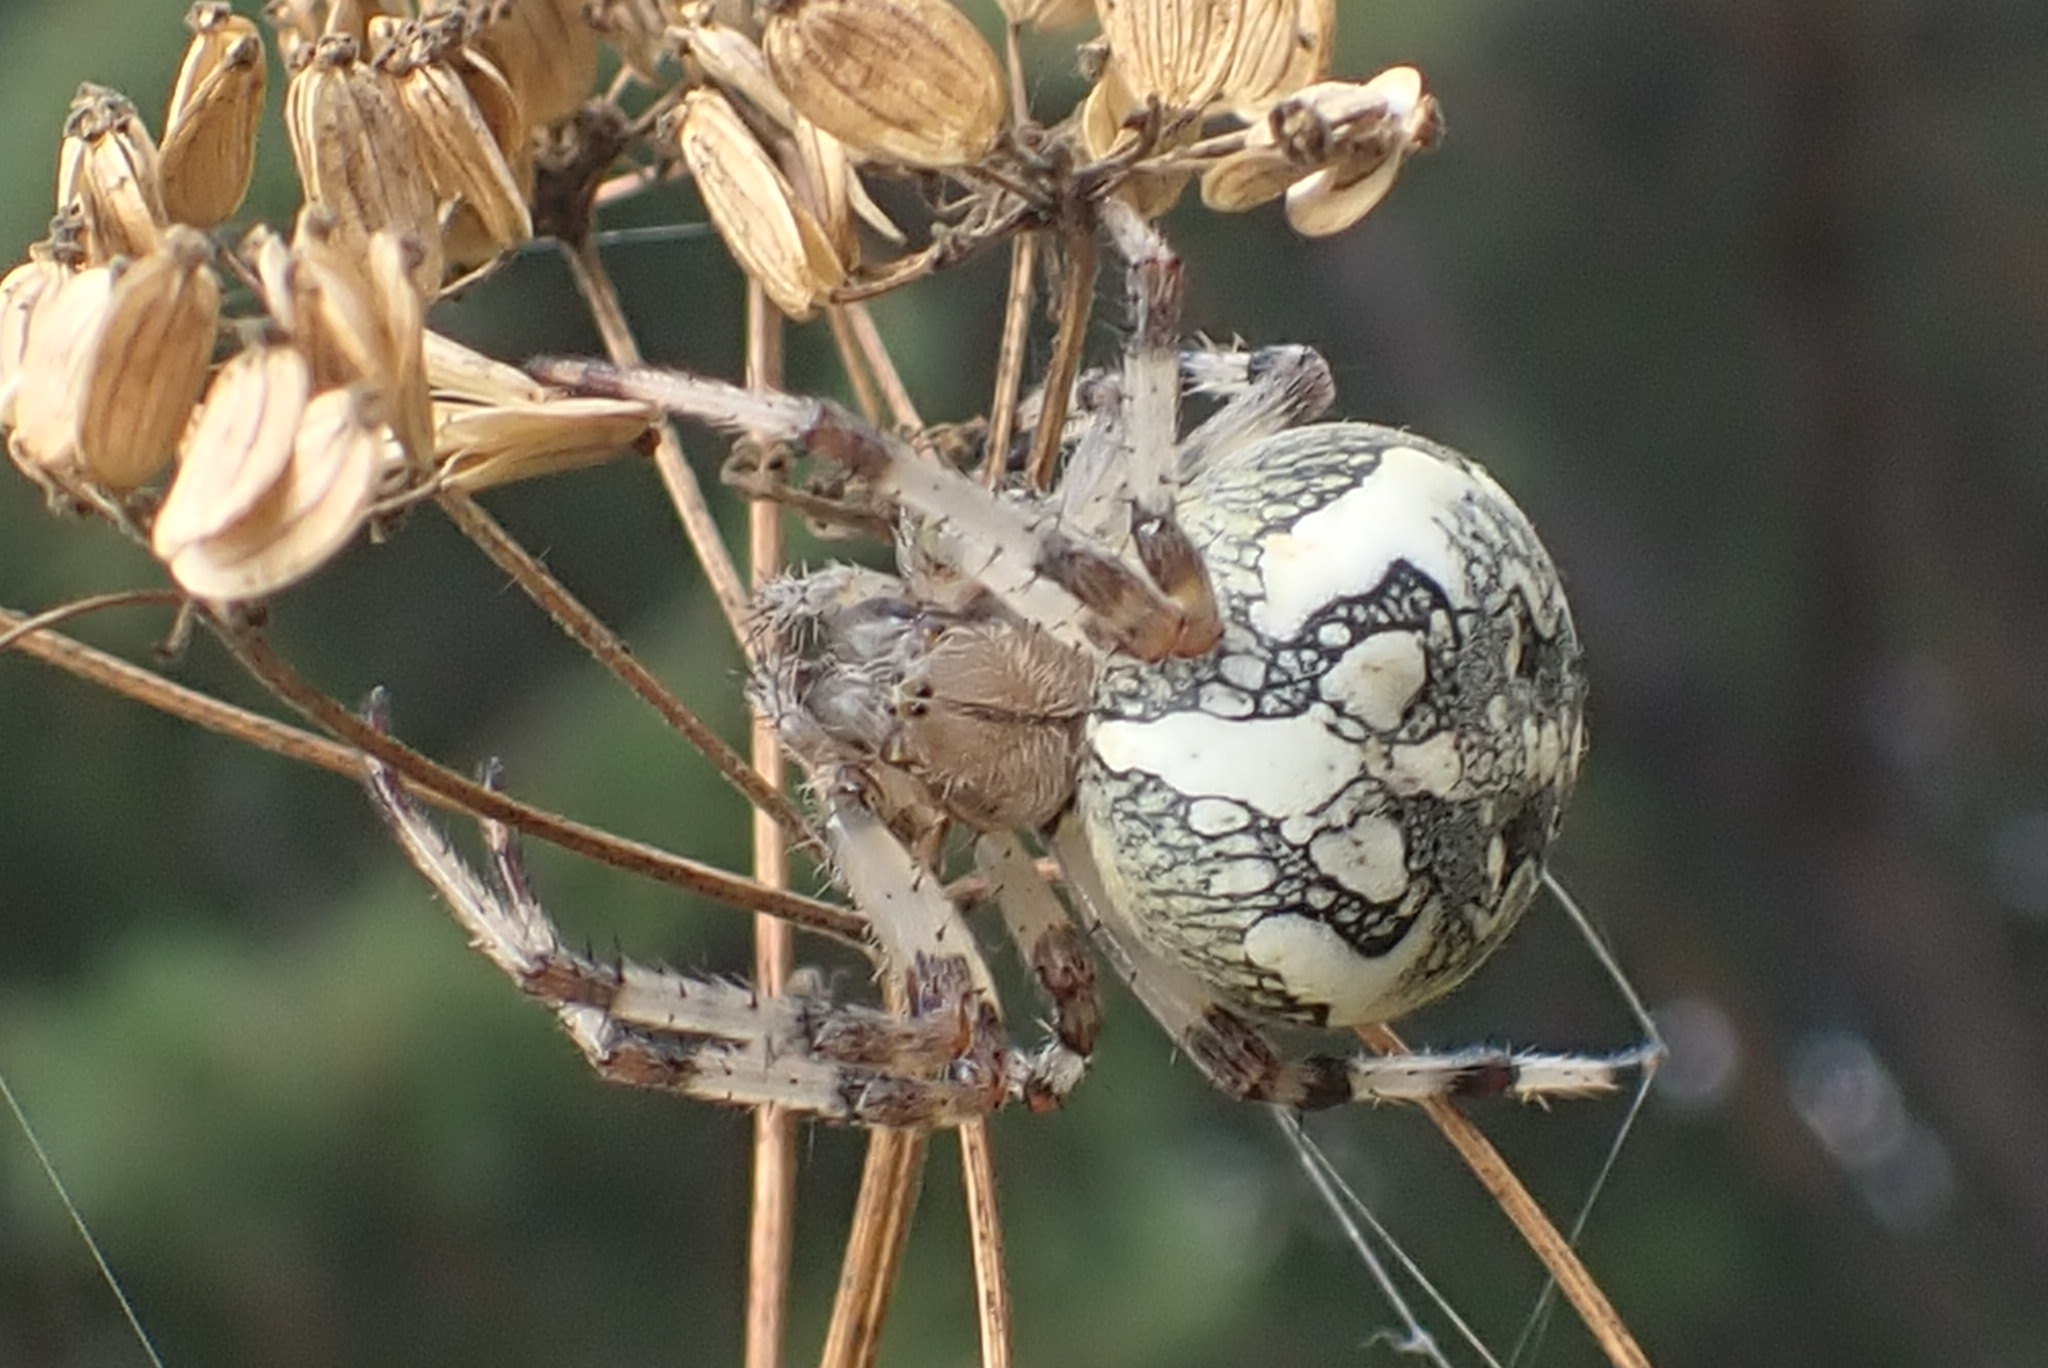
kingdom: Animalia
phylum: Arthropoda
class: Arachnida
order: Araneae
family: Araneidae
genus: Araneus
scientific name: Araneus marmoreus
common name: Marbled orbweaver
